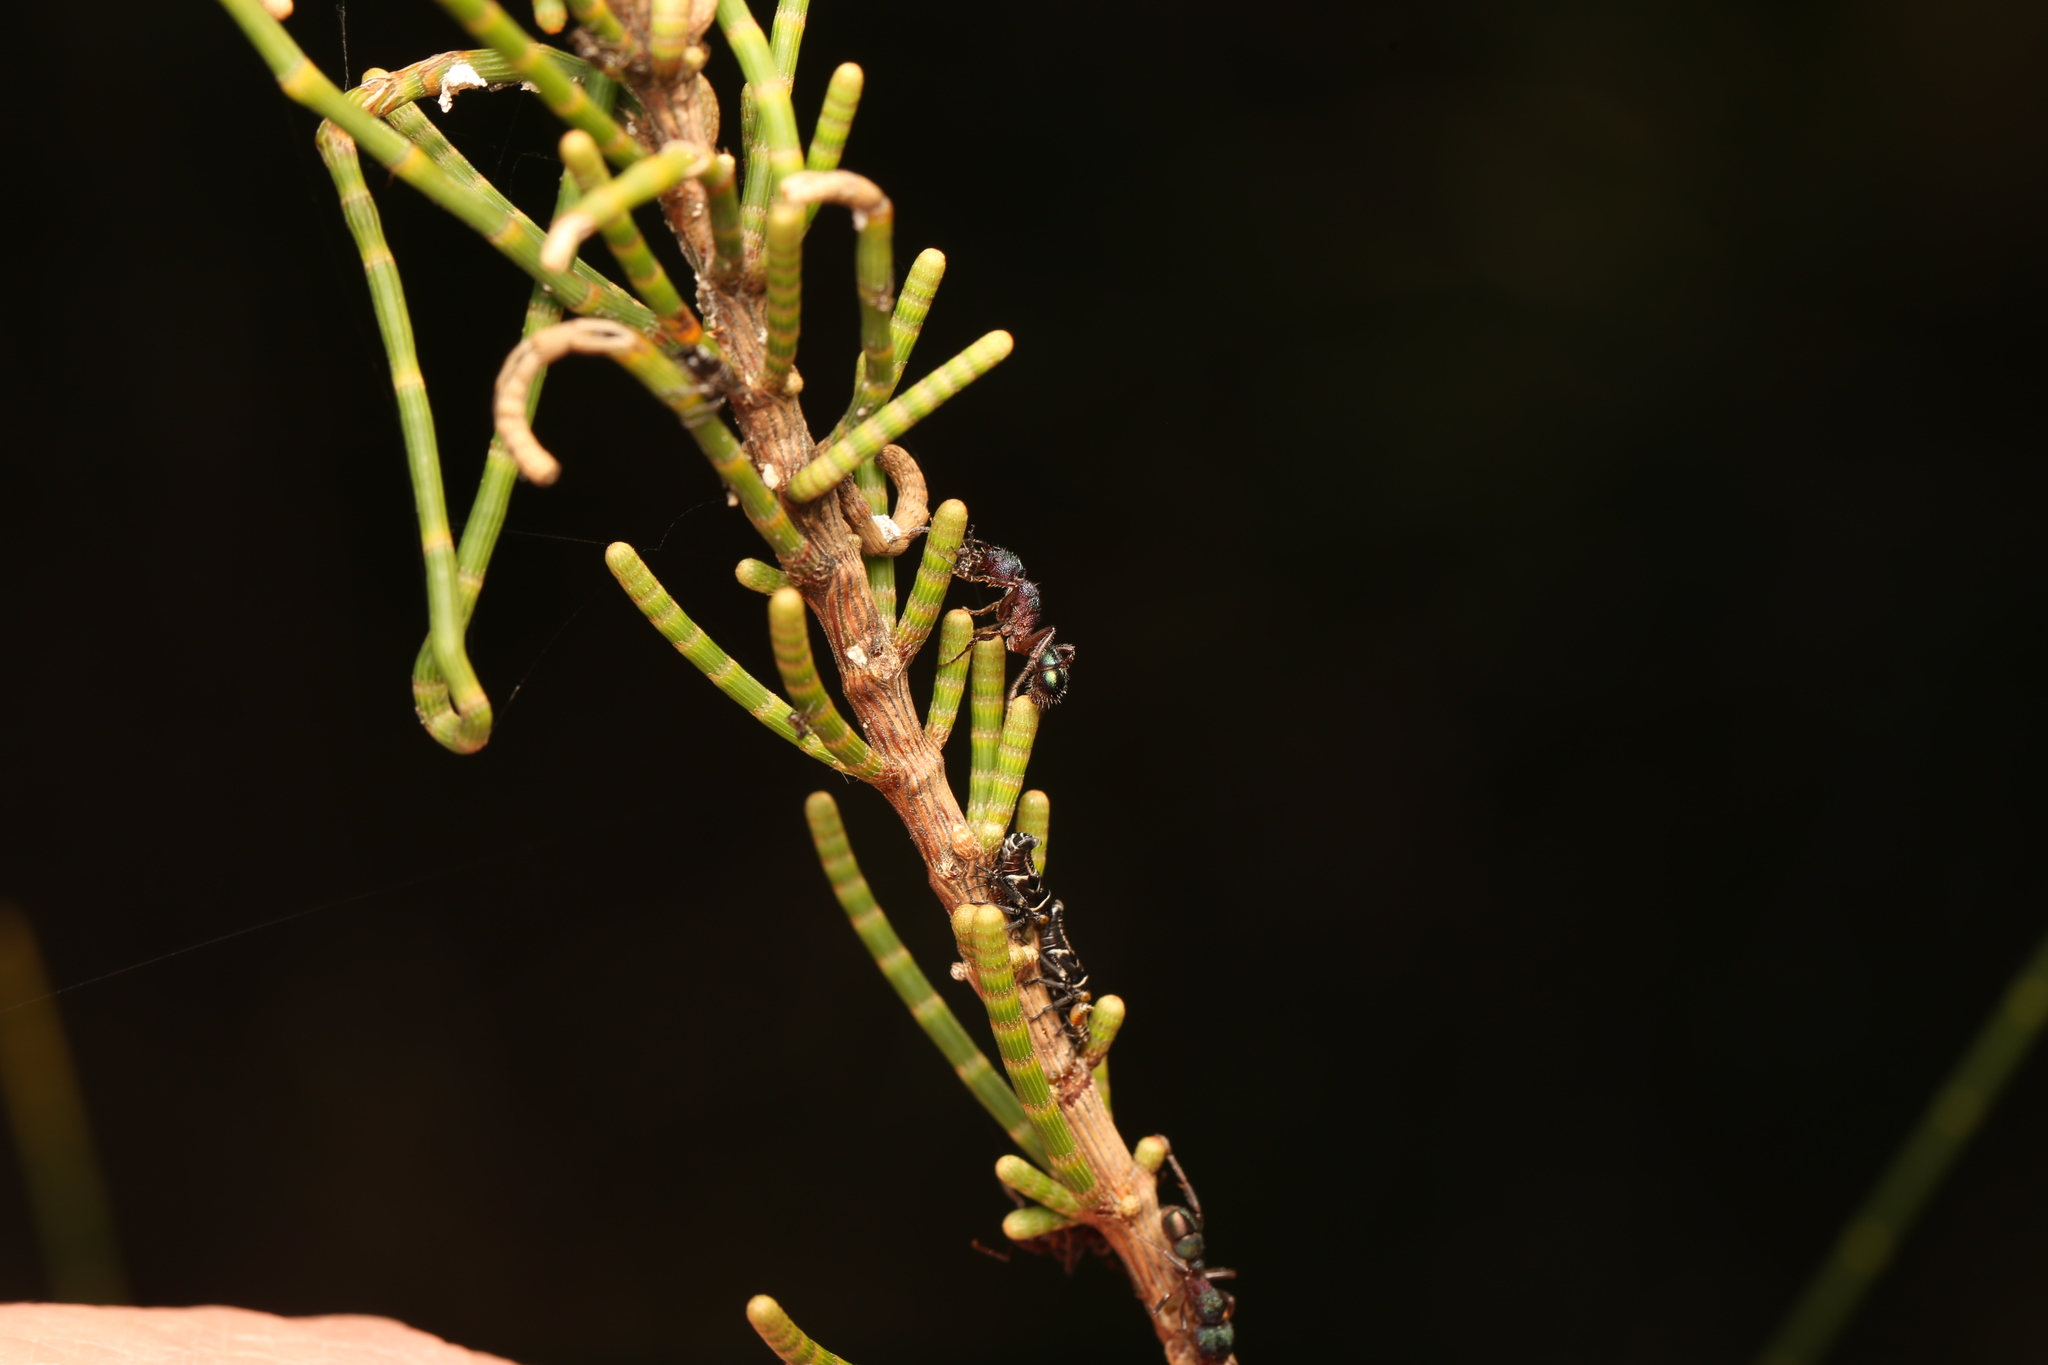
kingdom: Animalia
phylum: Arthropoda
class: Insecta
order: Hymenoptera
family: Formicidae
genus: Rhytidoponera
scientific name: Rhytidoponera metallica
